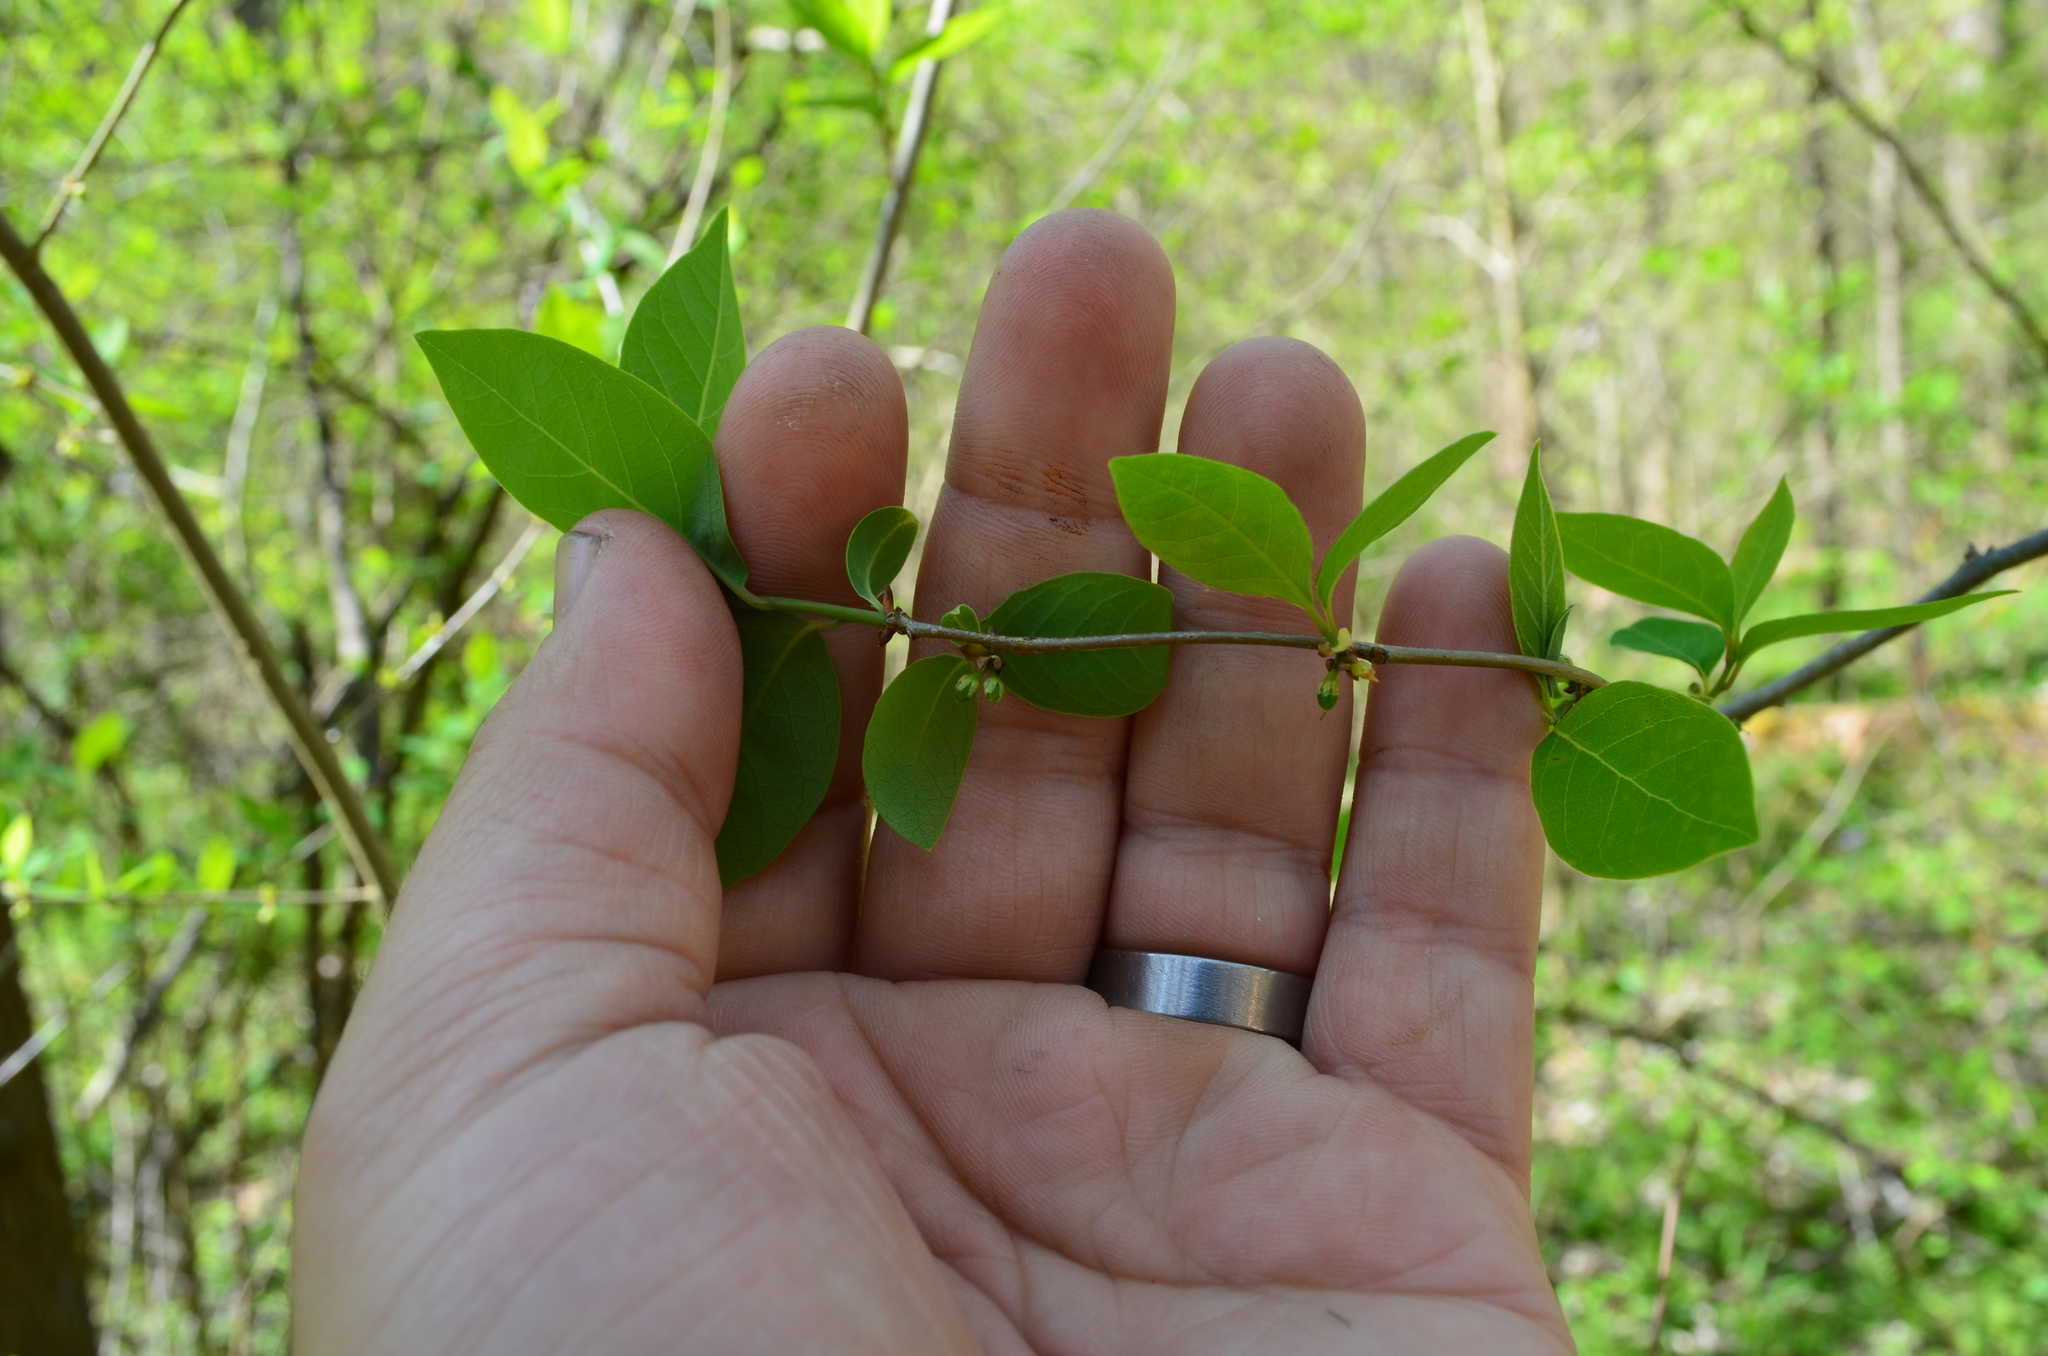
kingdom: Plantae
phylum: Tracheophyta
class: Magnoliopsida
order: Laurales
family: Lauraceae
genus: Lindera
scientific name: Lindera benzoin
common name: Spicebush
